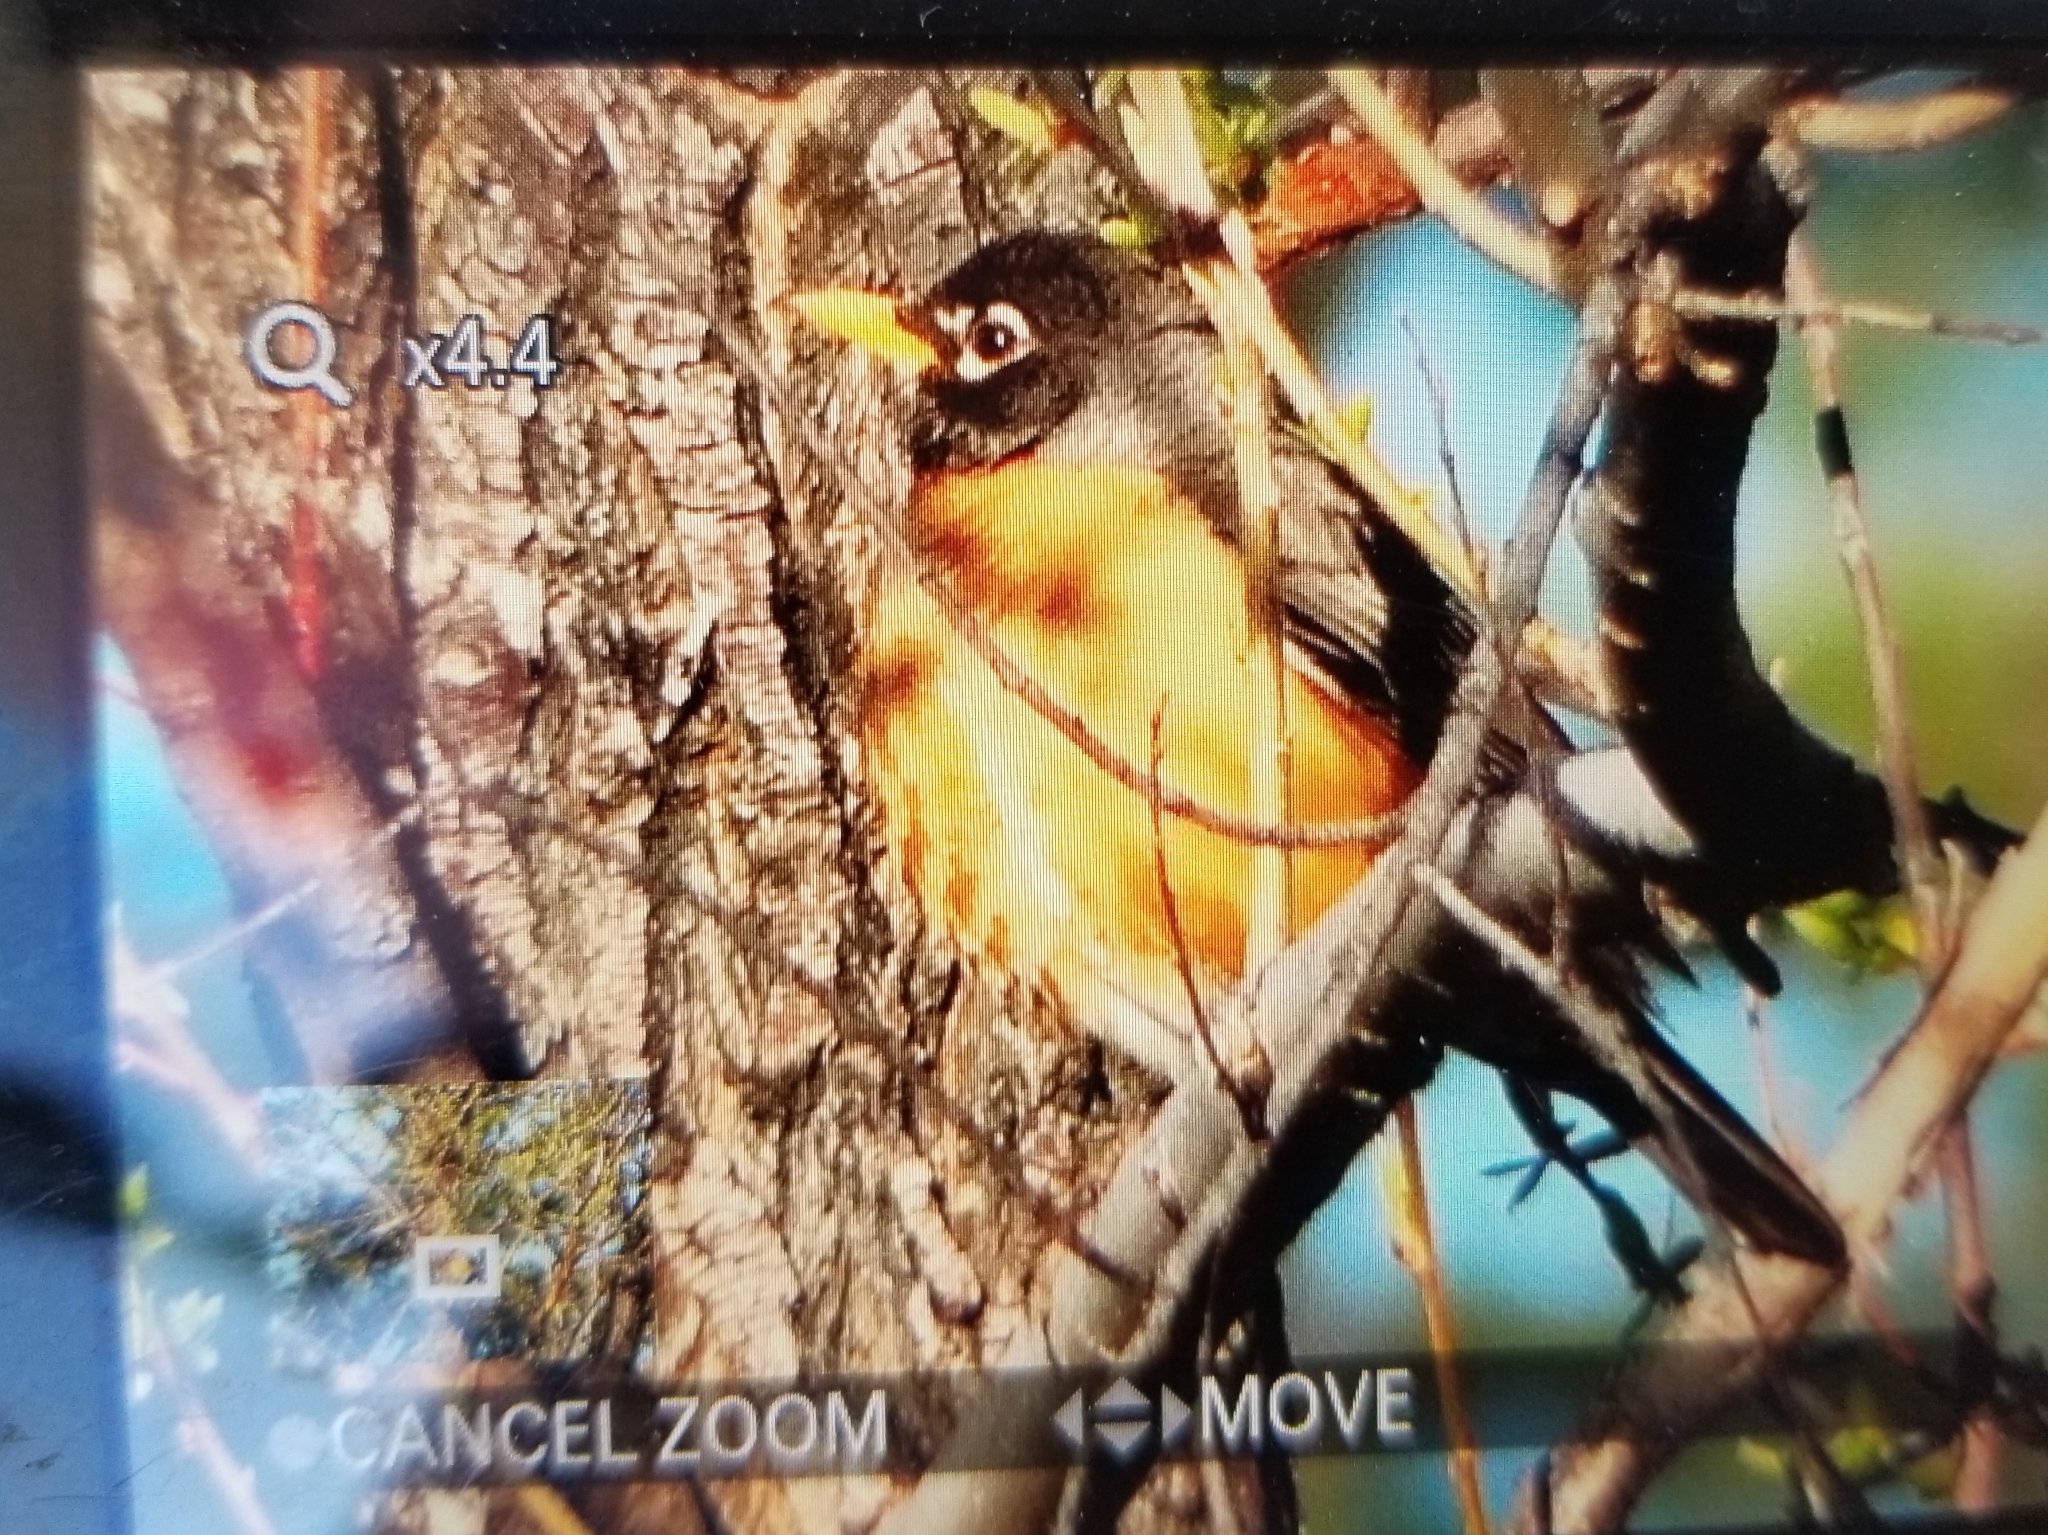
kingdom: Animalia
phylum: Chordata
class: Aves
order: Passeriformes
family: Turdidae
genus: Turdus
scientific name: Turdus migratorius
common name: American robin
